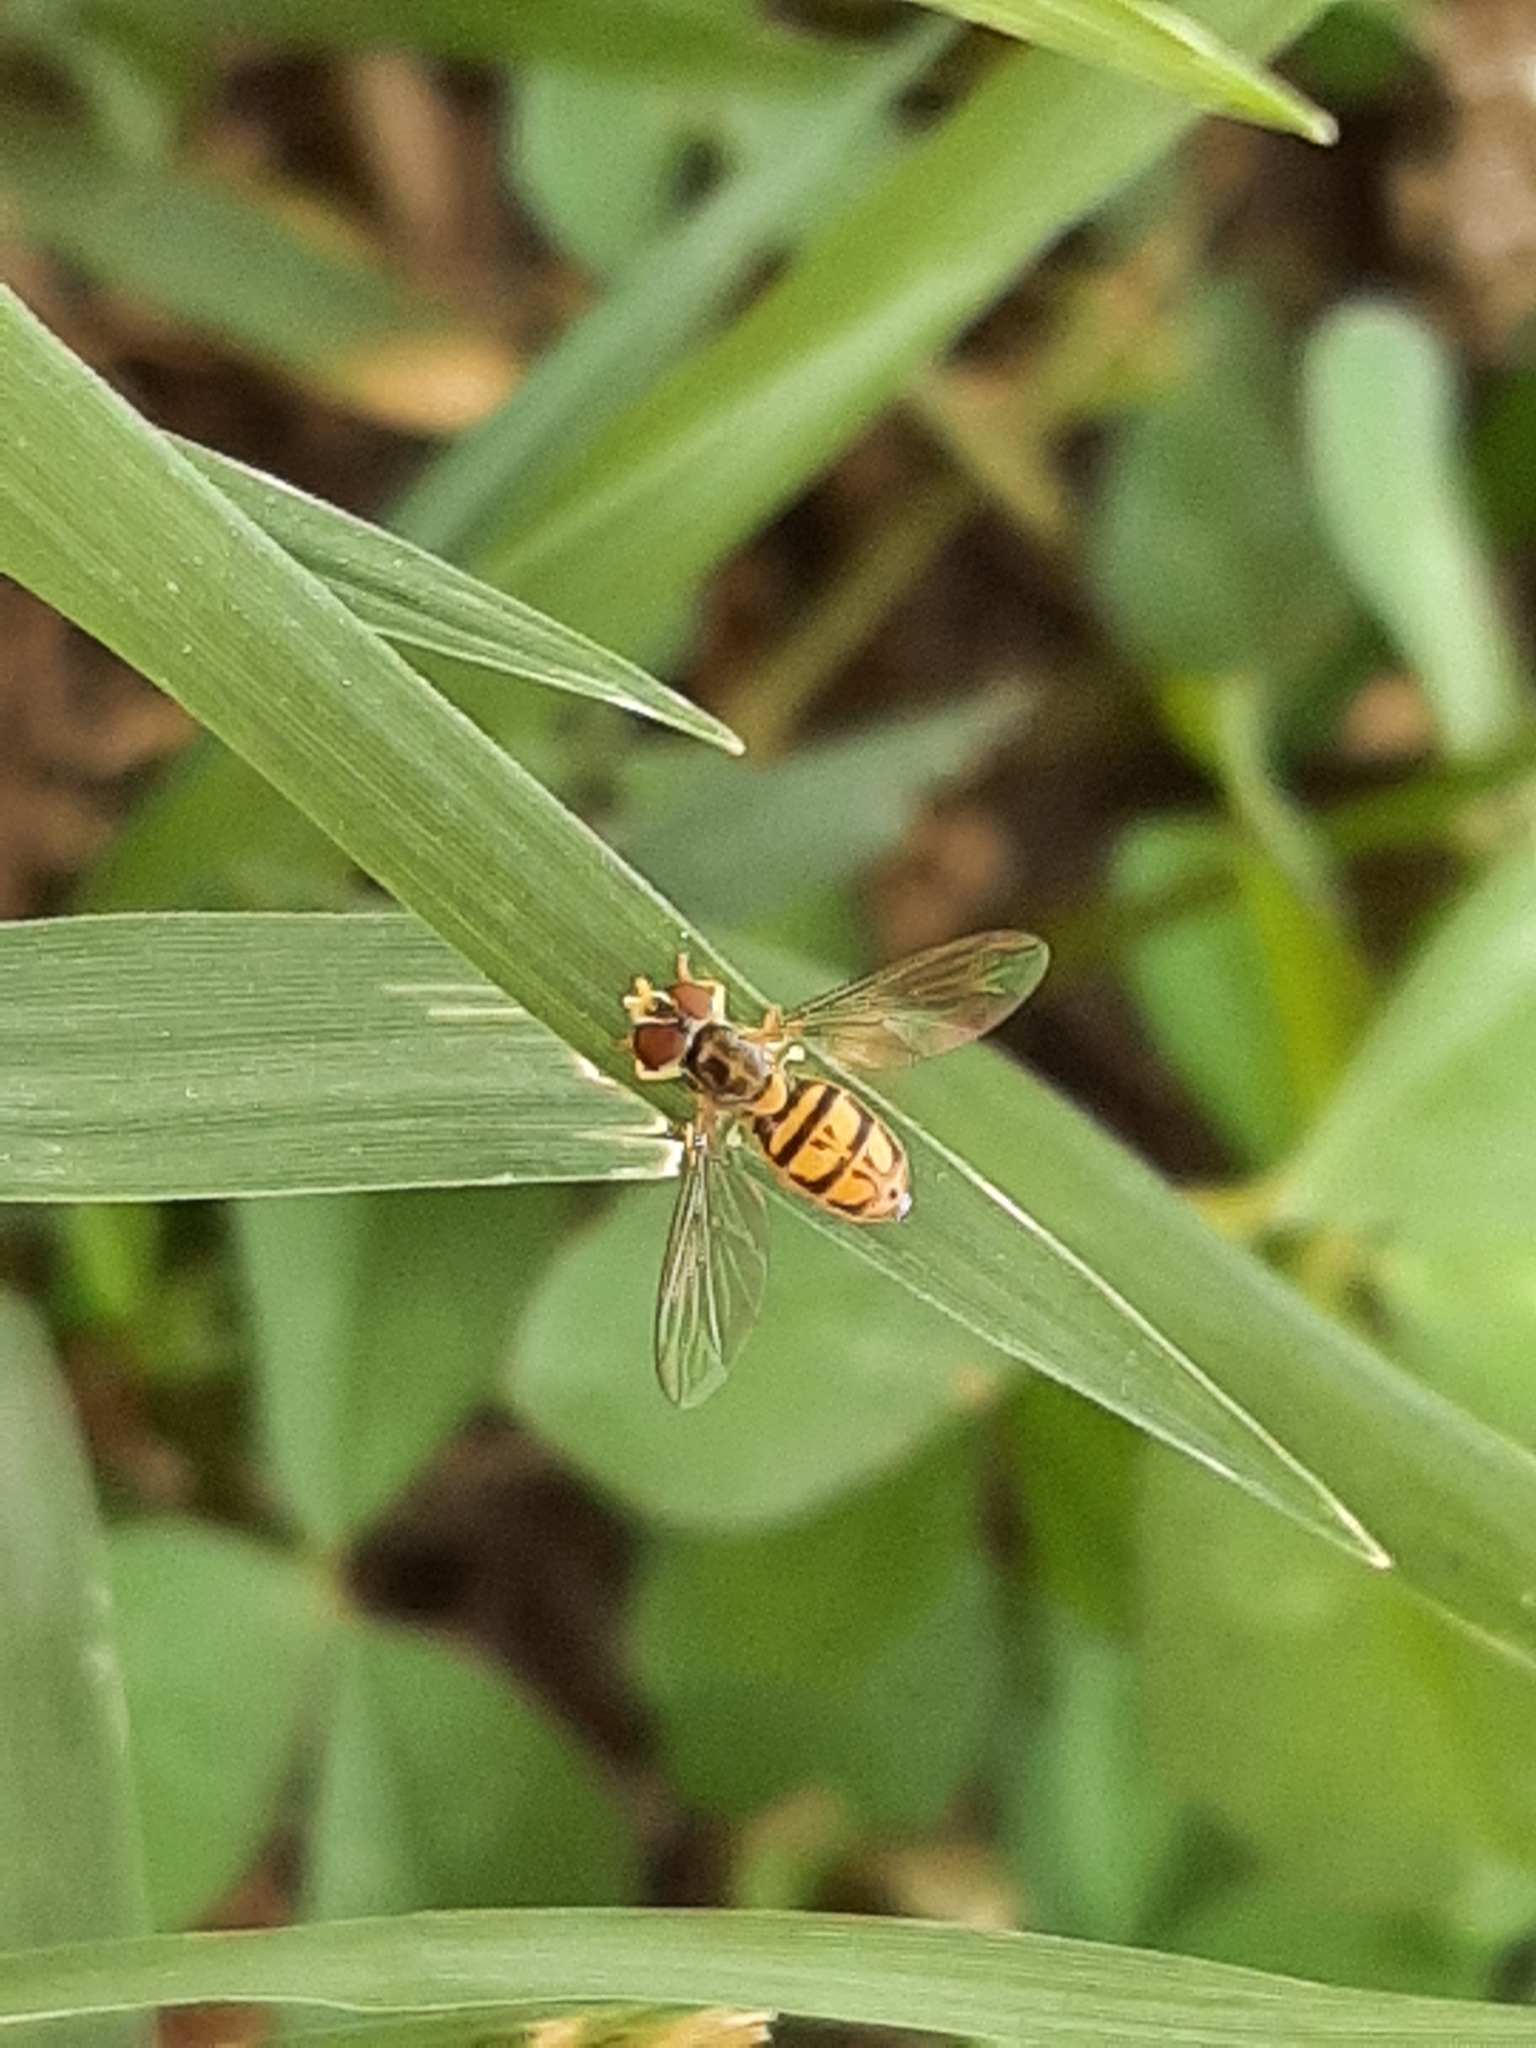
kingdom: Animalia
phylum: Arthropoda
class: Insecta
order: Diptera
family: Syrphidae
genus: Toxomerus
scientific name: Toxomerus marginatus
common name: Syrphid fly
